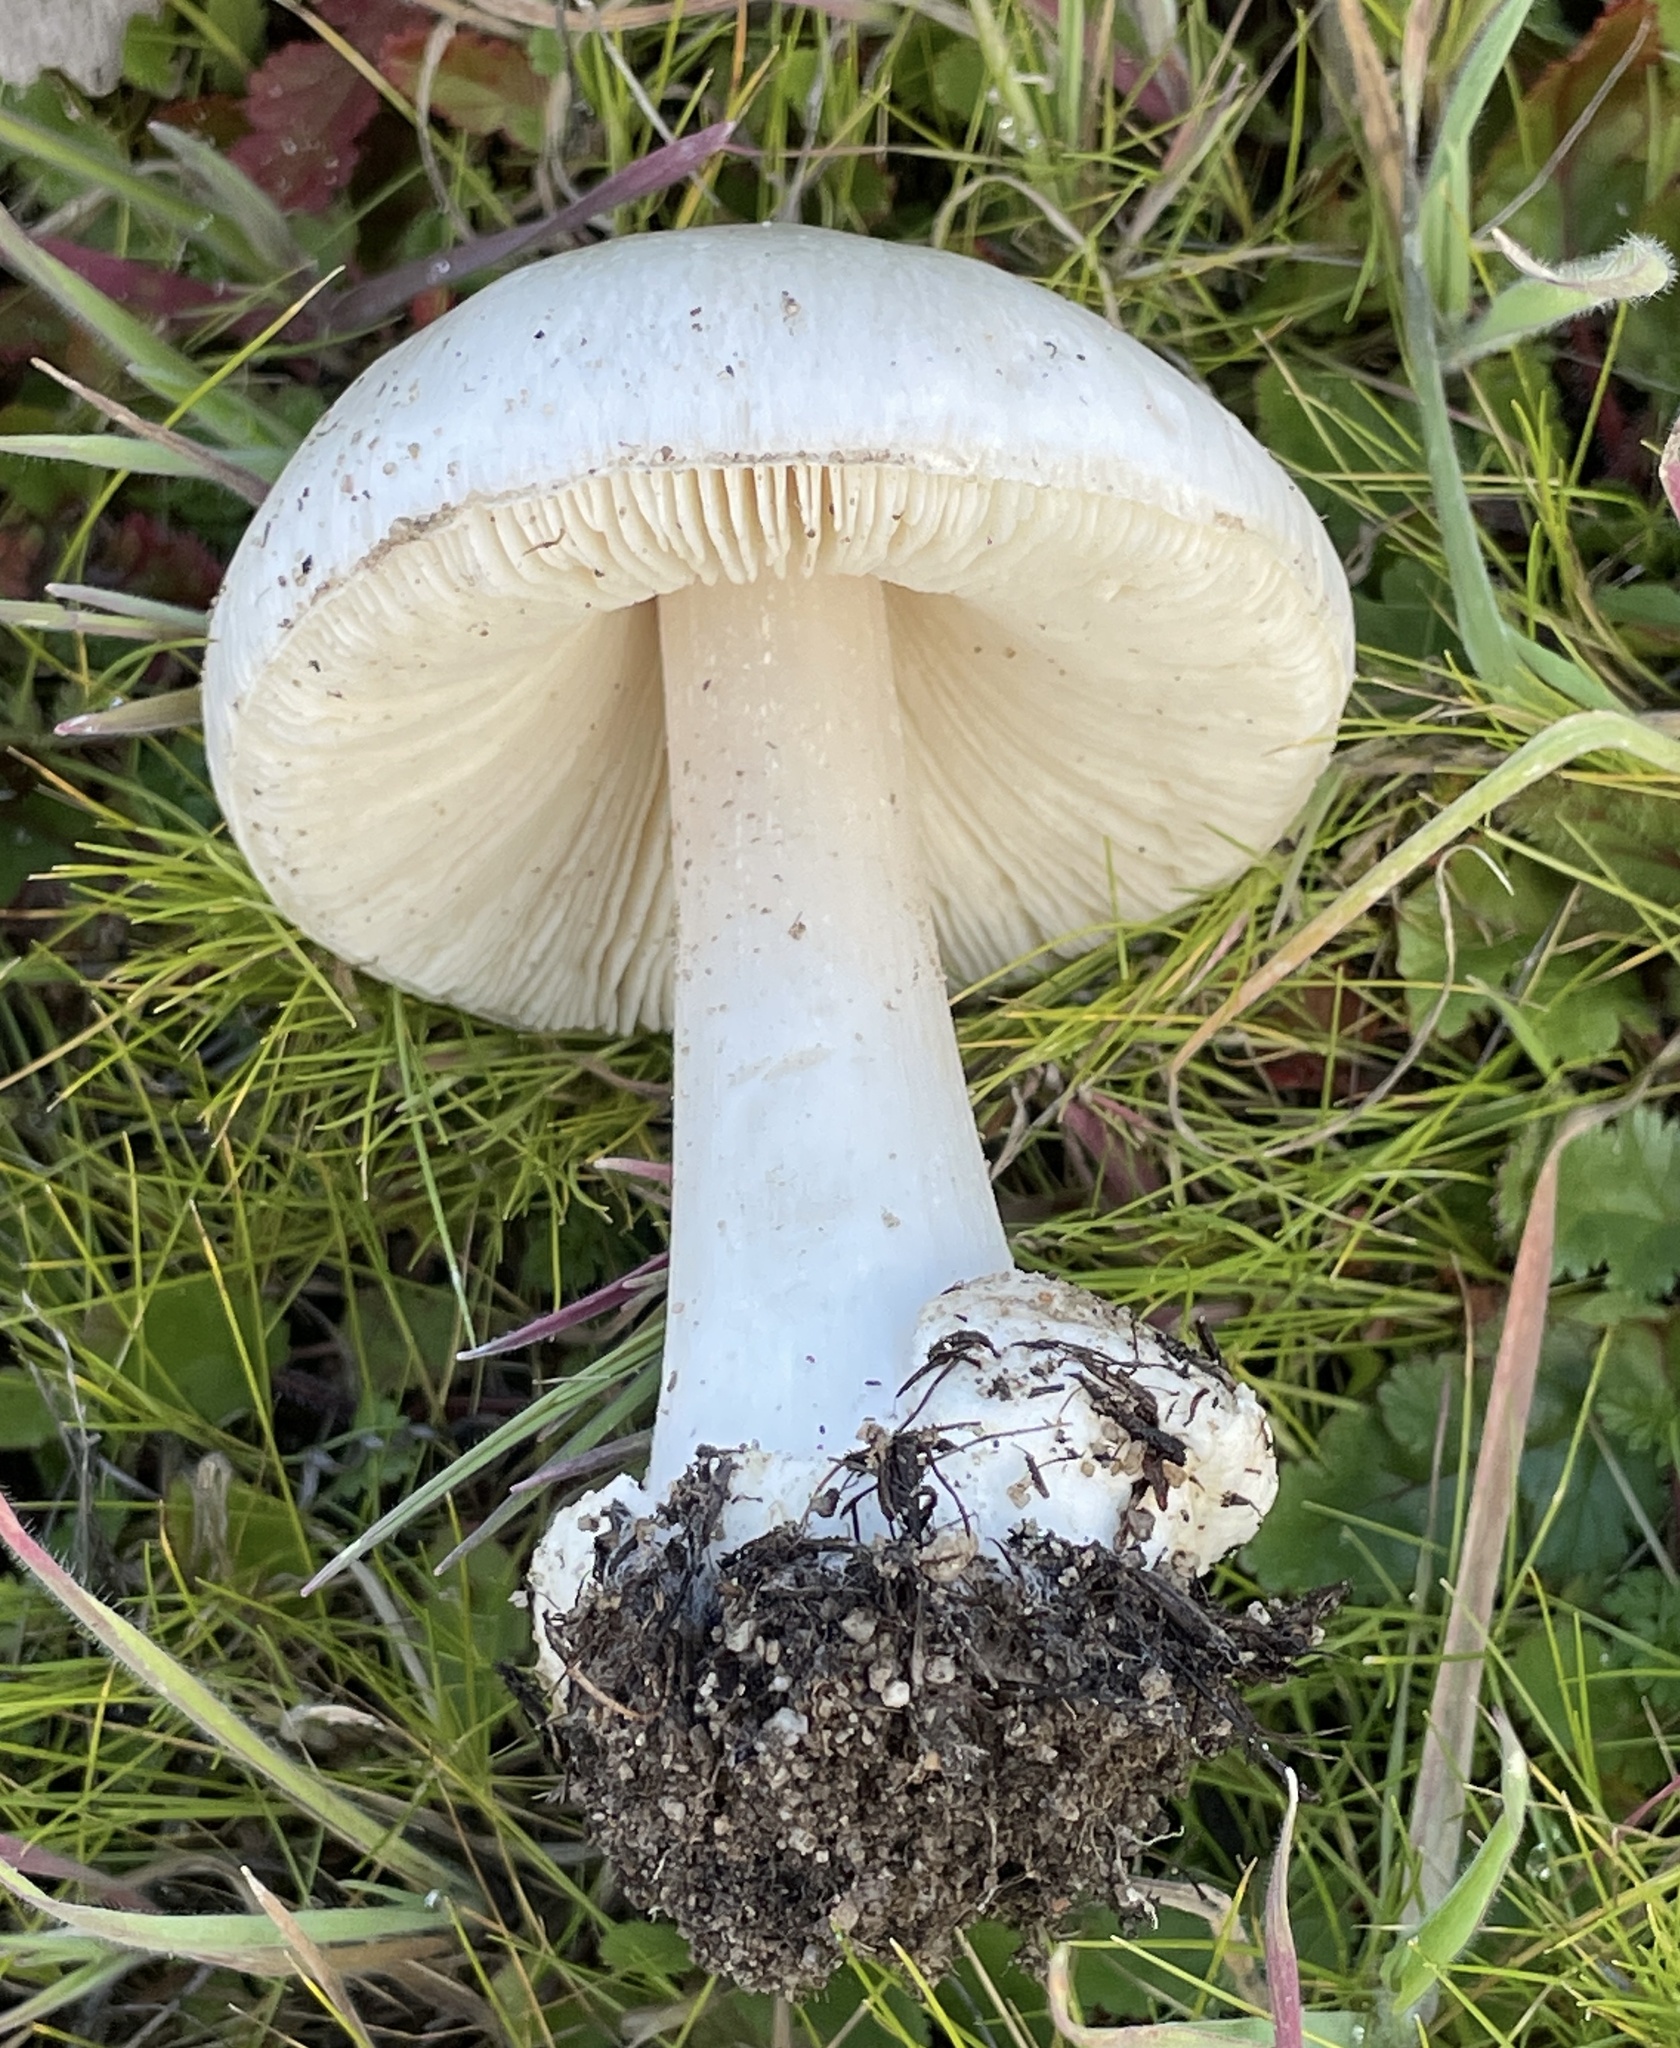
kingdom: Fungi
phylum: Basidiomycota
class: Agaricomycetes
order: Agaricales
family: Pluteaceae
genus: Volvopluteus
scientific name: Volvopluteus gloiocephalus
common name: Stubble rosegill
